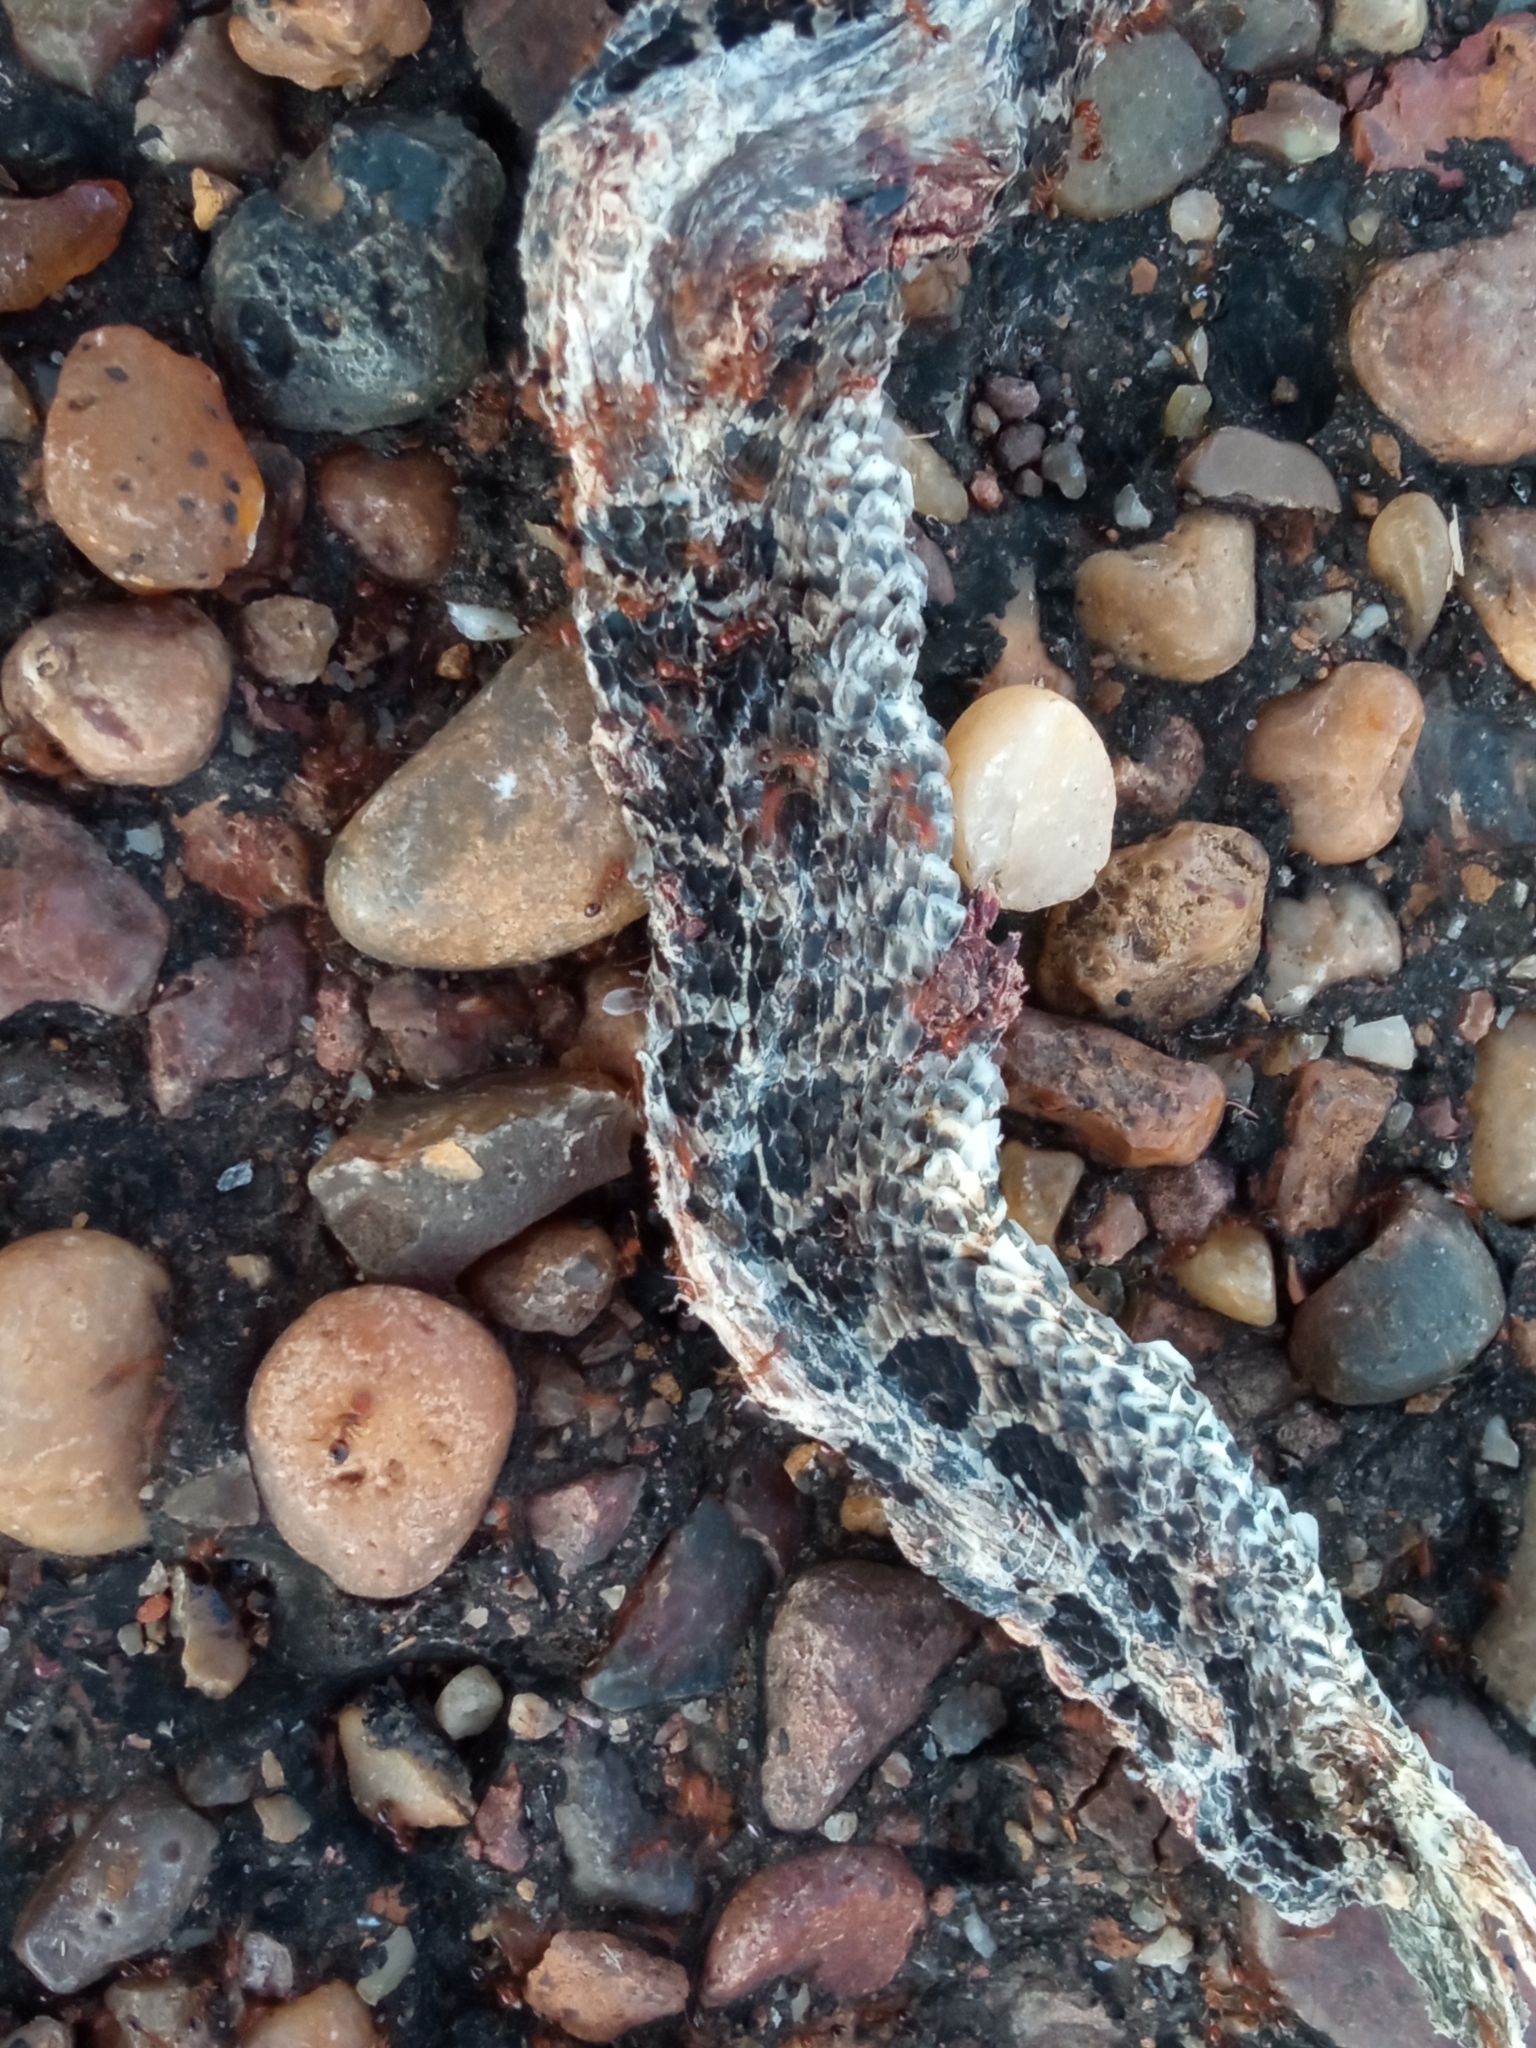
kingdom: Animalia
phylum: Chordata
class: Squamata
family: Colubridae
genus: Tachymenis
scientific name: Tachymenis
